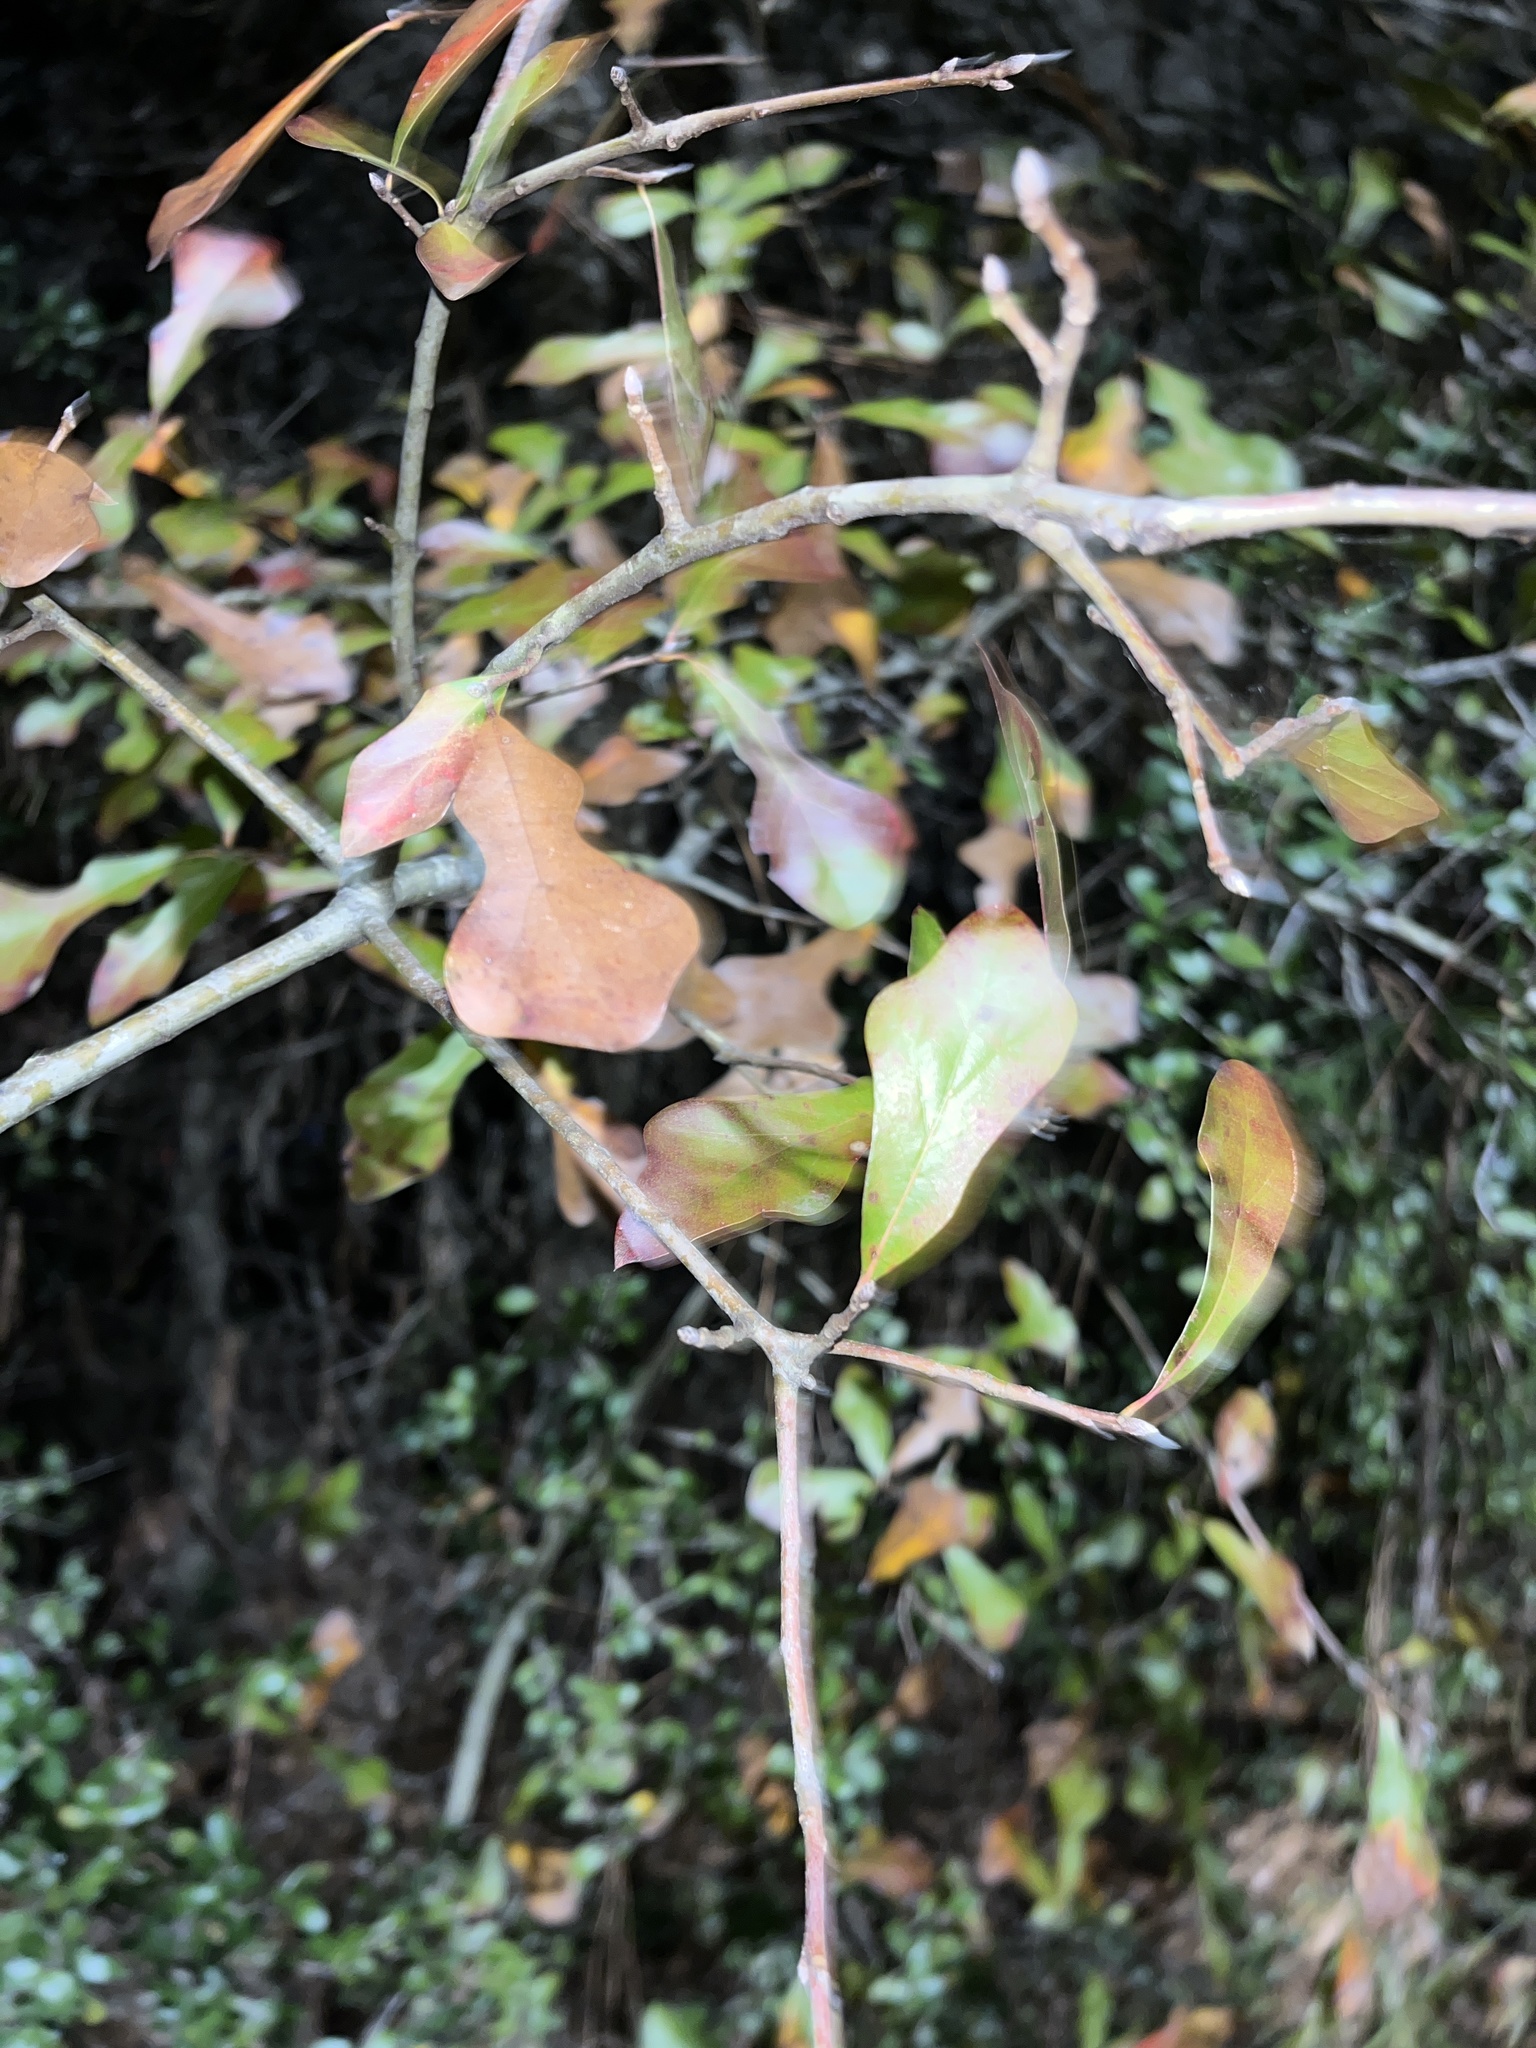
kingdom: Plantae
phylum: Tracheophyta
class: Magnoliopsida
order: Fagales
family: Fagaceae
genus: Quercus
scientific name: Quercus nigra
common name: Water oak
